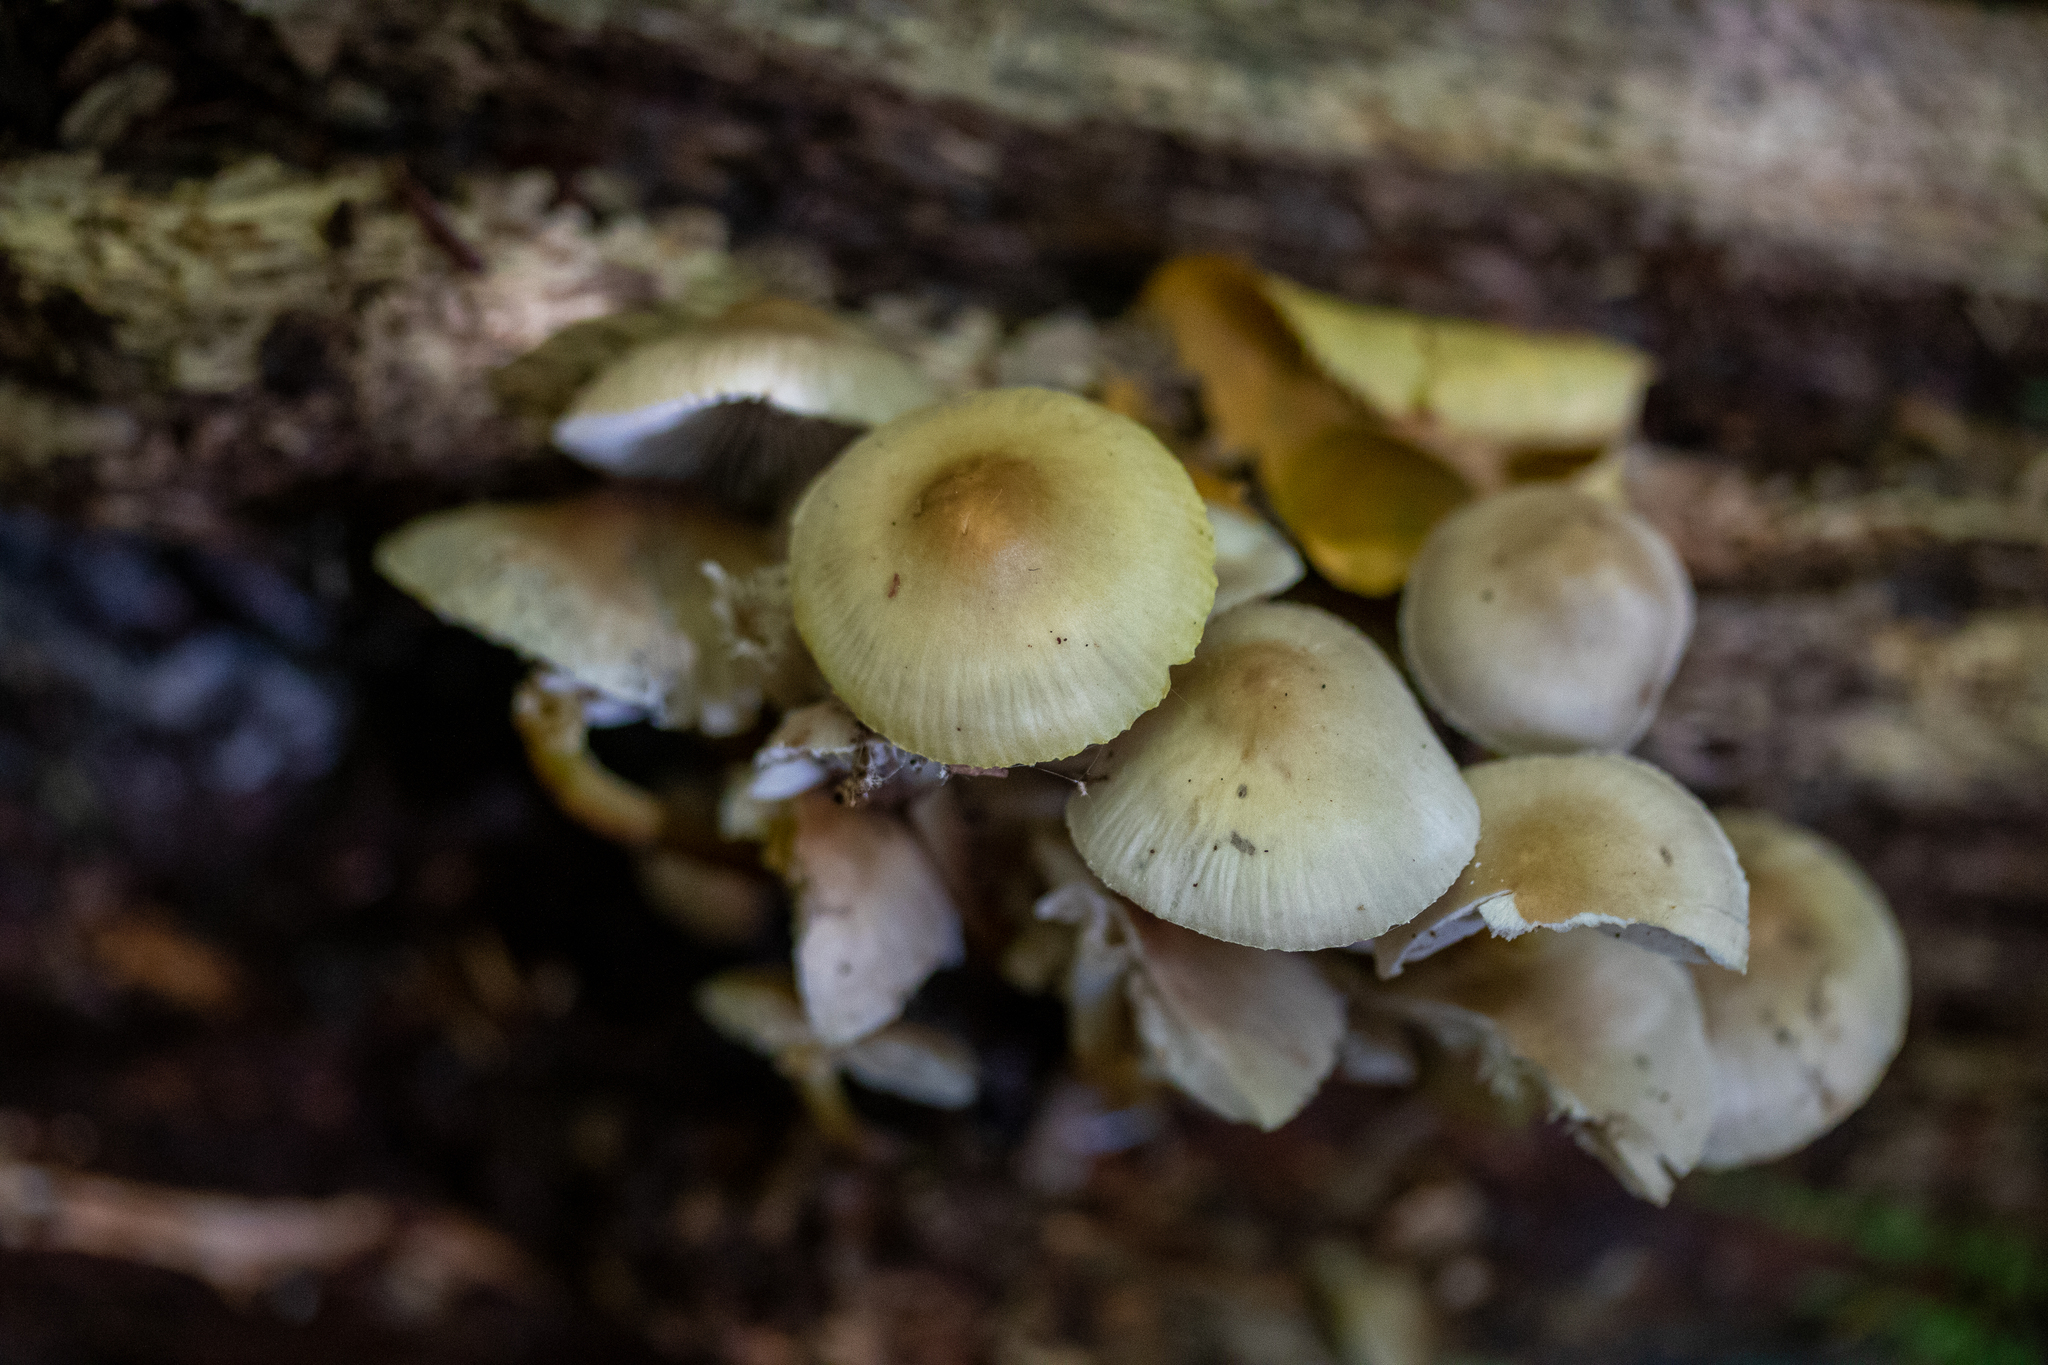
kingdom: Fungi
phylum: Basidiomycota
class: Agaricomycetes
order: Agaricales
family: Mycenaceae
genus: Mycena
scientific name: Mycena inclinata
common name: Clustered bonnet
